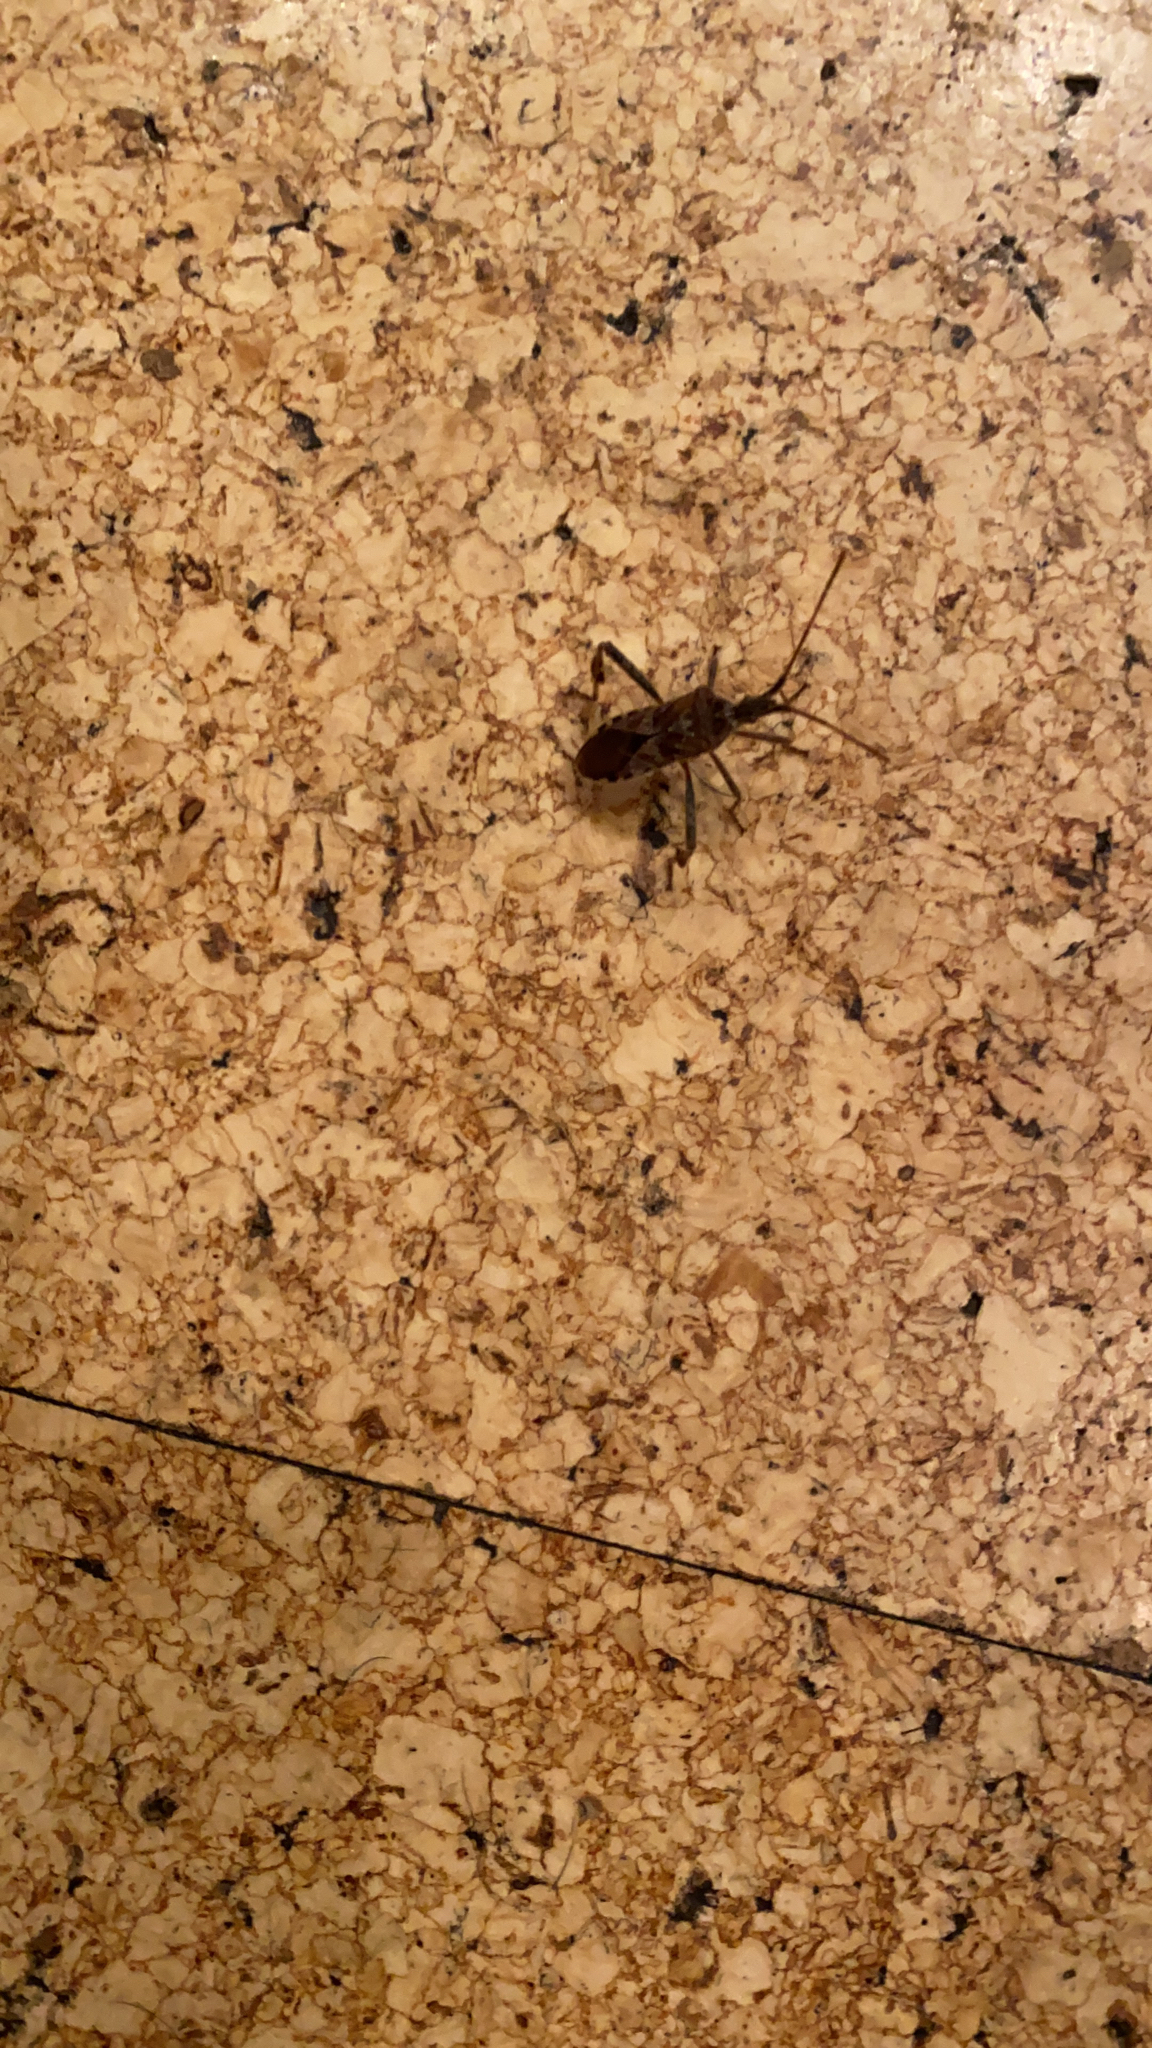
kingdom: Animalia
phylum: Arthropoda
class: Insecta
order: Hemiptera
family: Coreidae
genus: Leptoglossus
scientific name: Leptoglossus occidentalis
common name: Western conifer-seed bug
